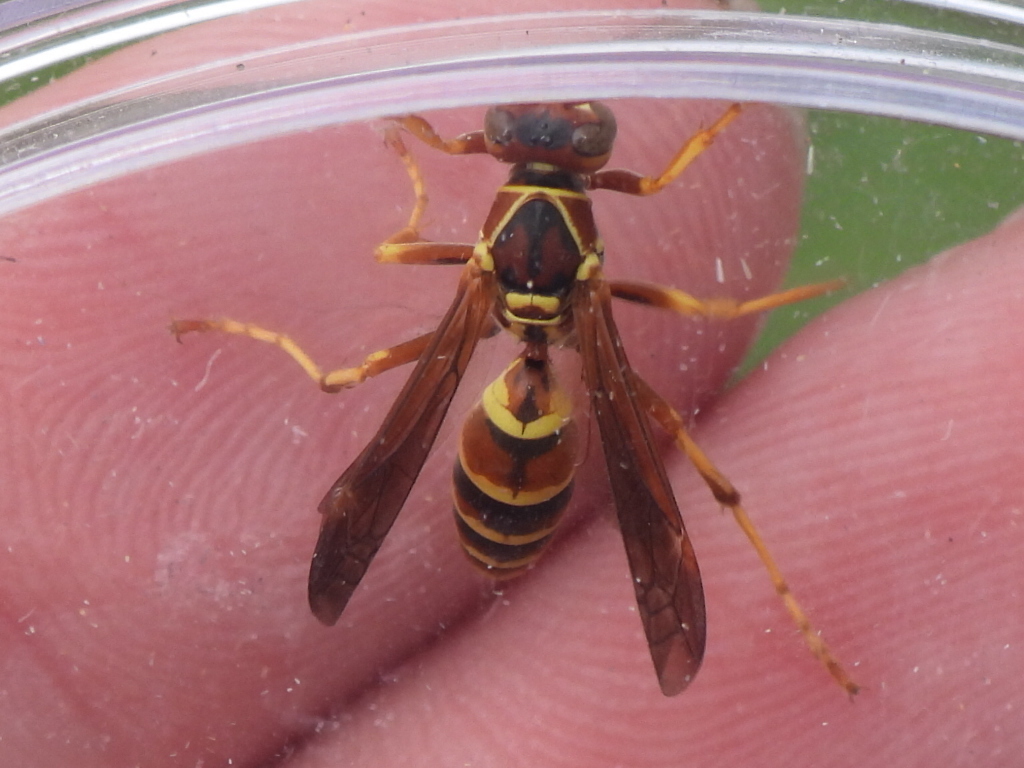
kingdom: Animalia
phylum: Arthropoda
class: Insecta
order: Hymenoptera
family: Eumenidae
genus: Polistes
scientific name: Polistes dorsalis
